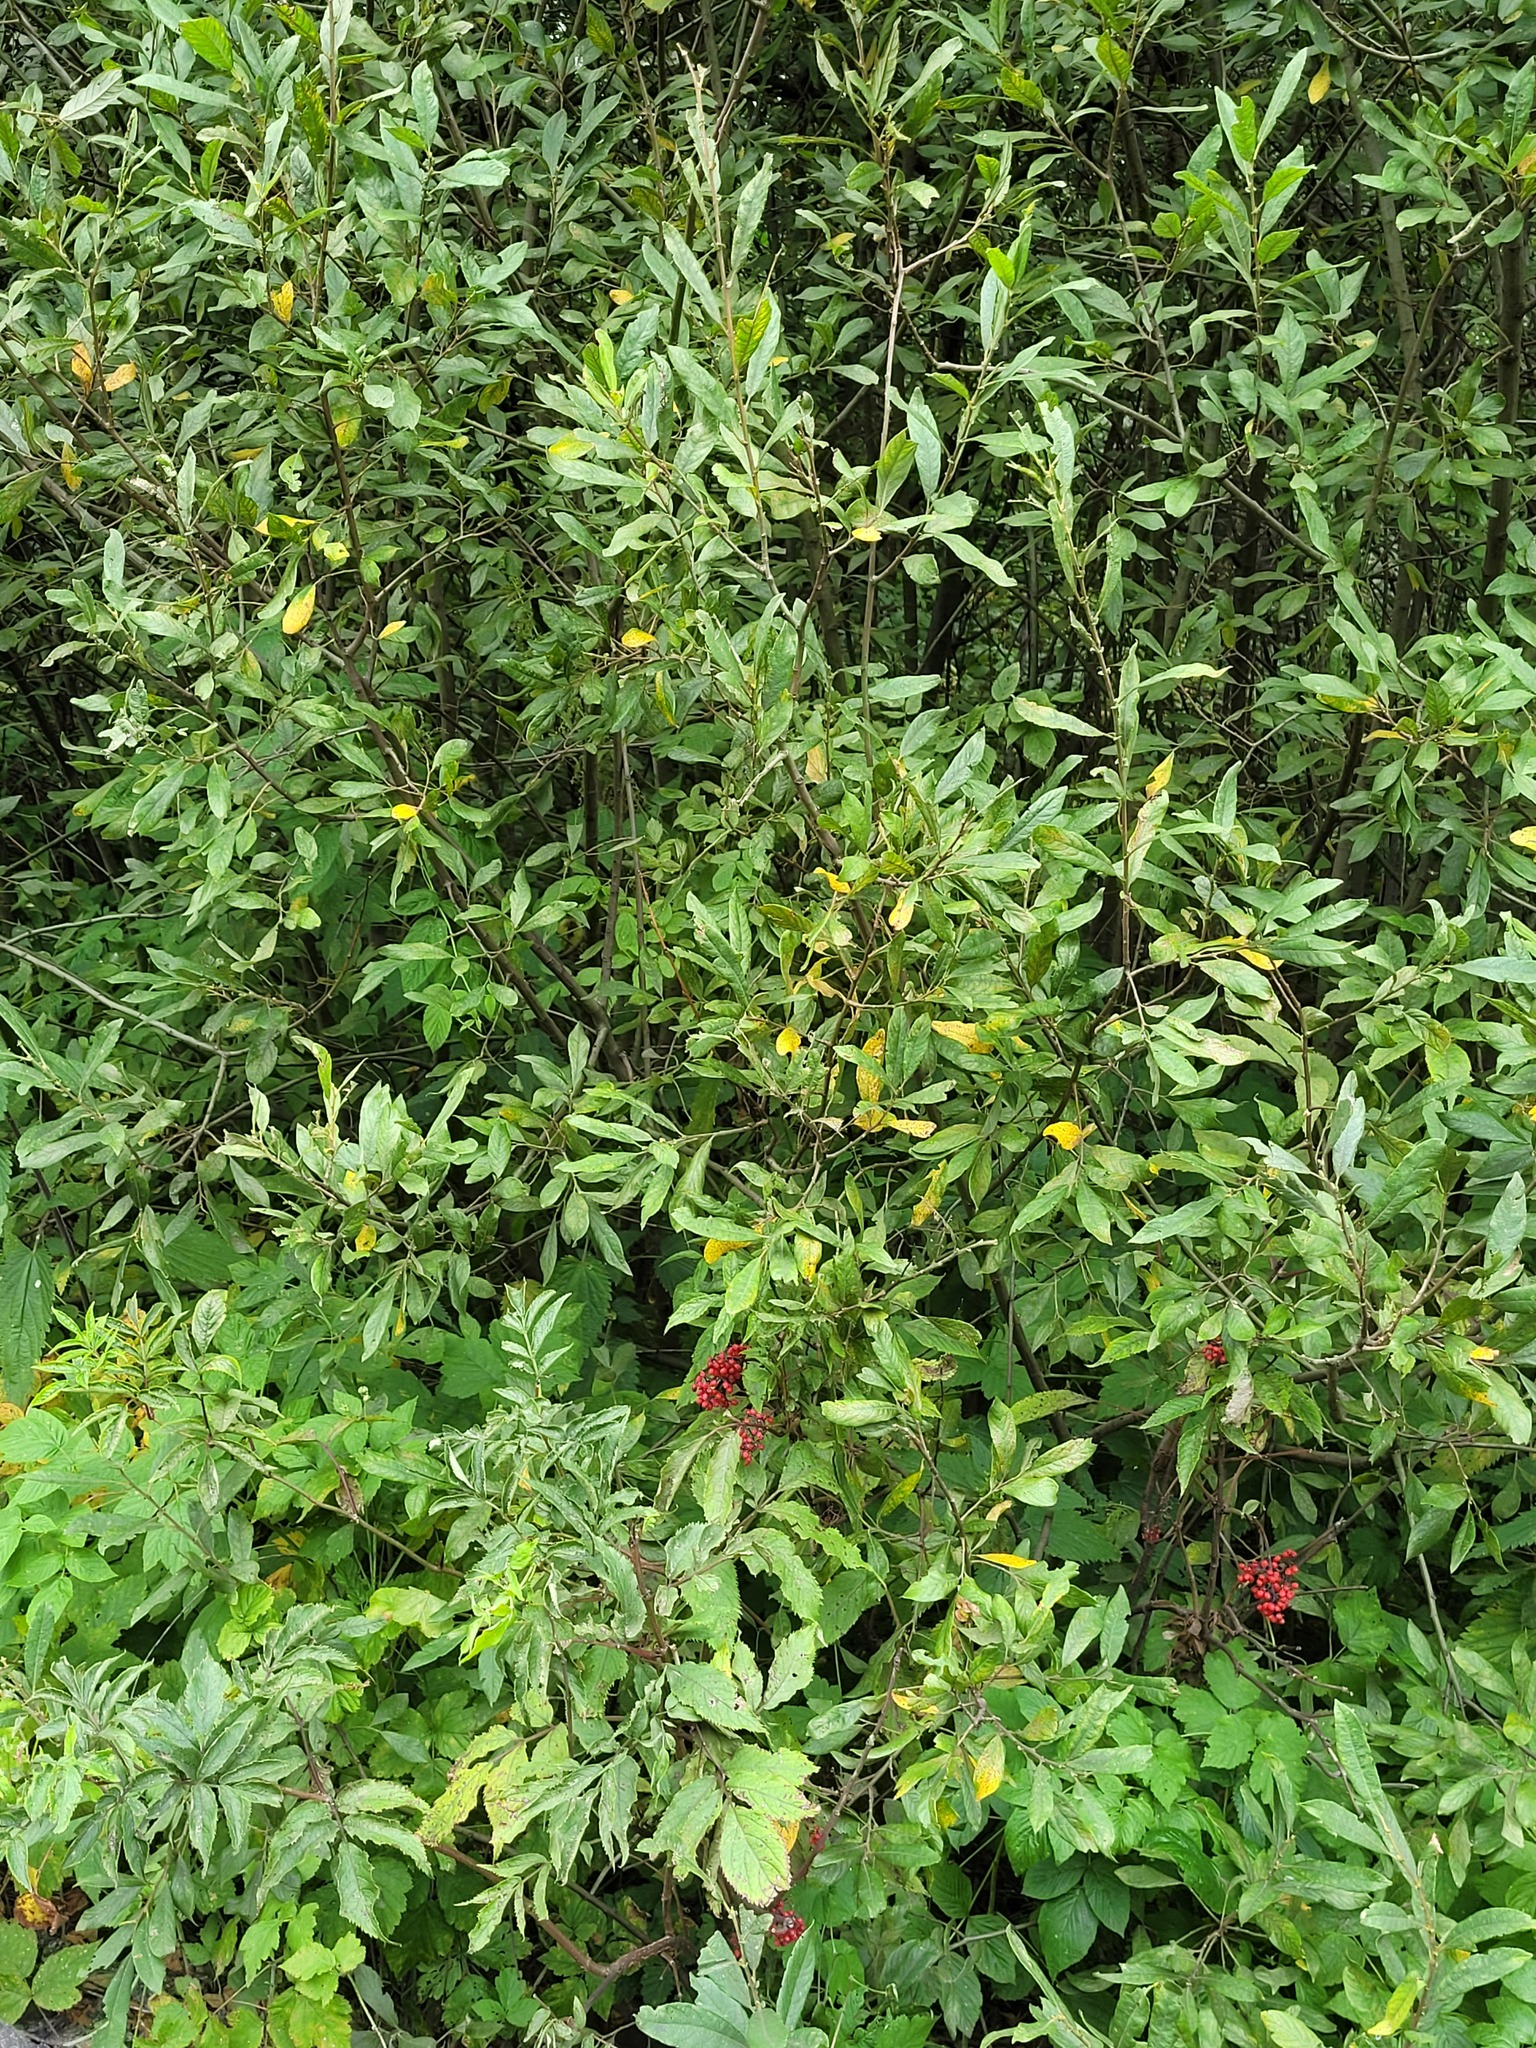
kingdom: Plantae
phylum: Tracheophyta
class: Magnoliopsida
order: Malpighiales
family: Salicaceae
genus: Salix
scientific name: Salix cinerea
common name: Common sallow
